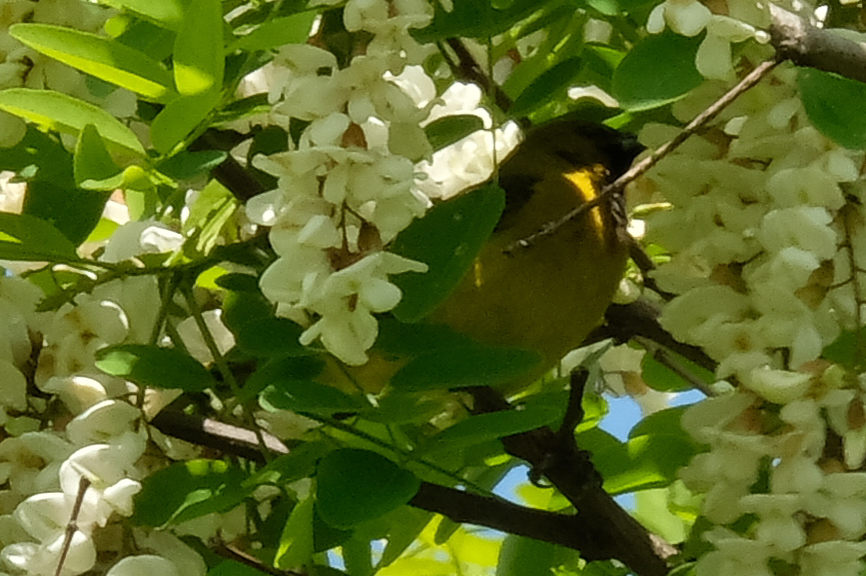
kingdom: Animalia
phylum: Chordata
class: Aves
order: Passeriformes
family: Icteridae
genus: Icterus
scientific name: Icterus spurius
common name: Orchard oriole
